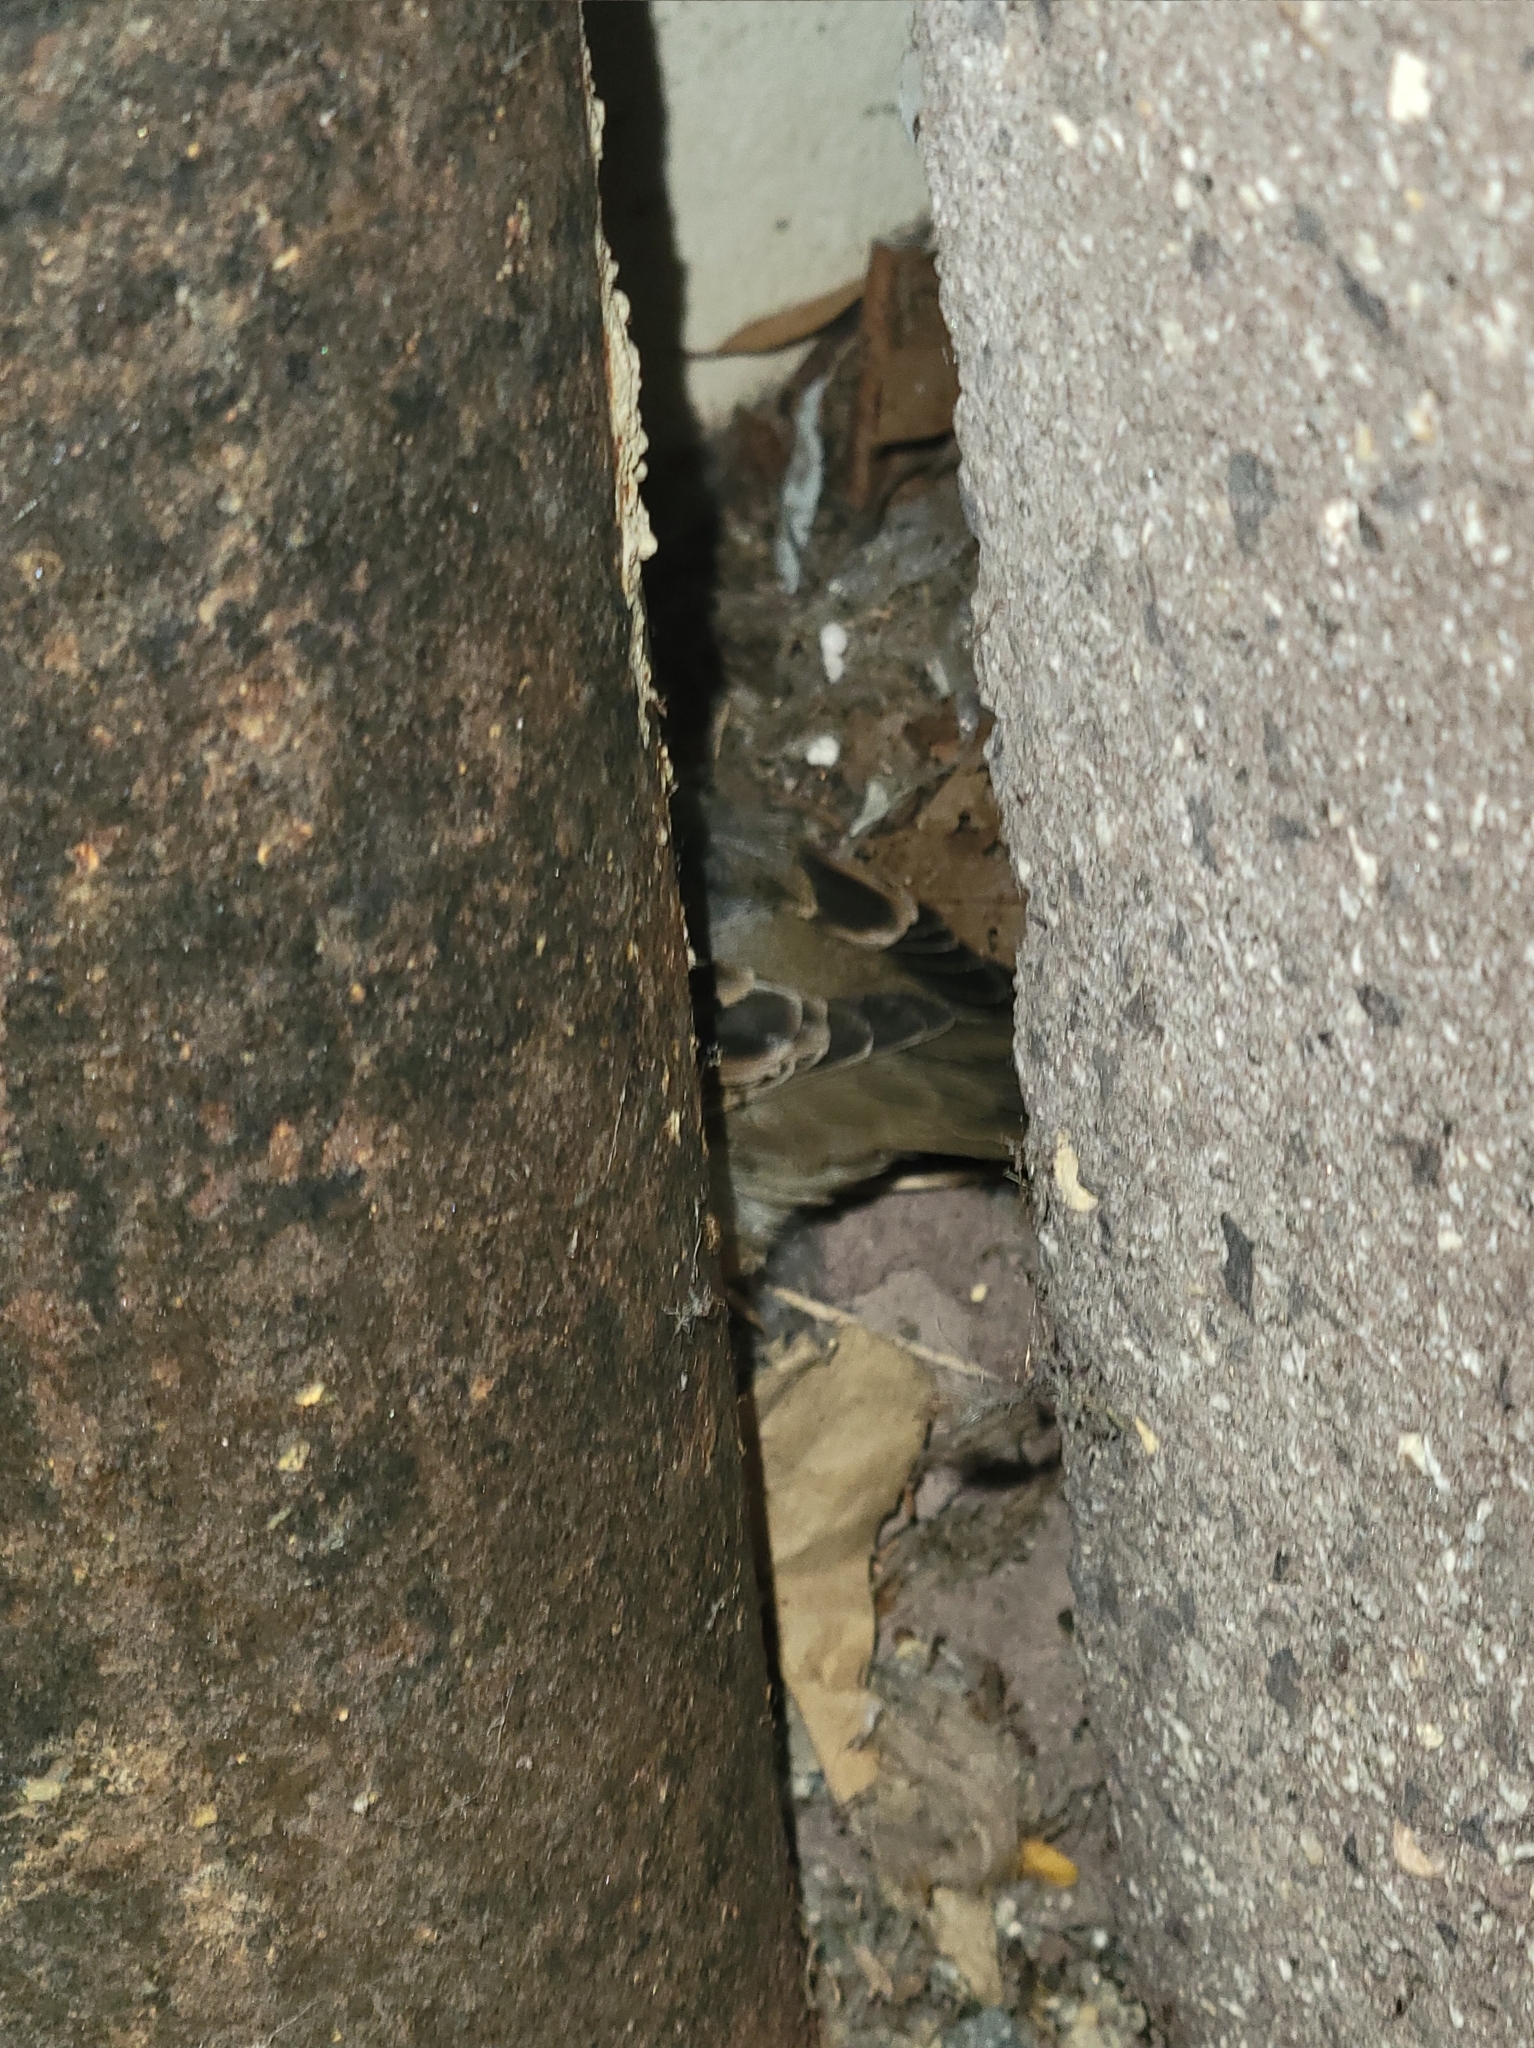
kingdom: Animalia
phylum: Chordata
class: Aves
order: Passeriformes
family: Passeridae
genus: Passer
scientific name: Passer domesticus
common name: House sparrow
